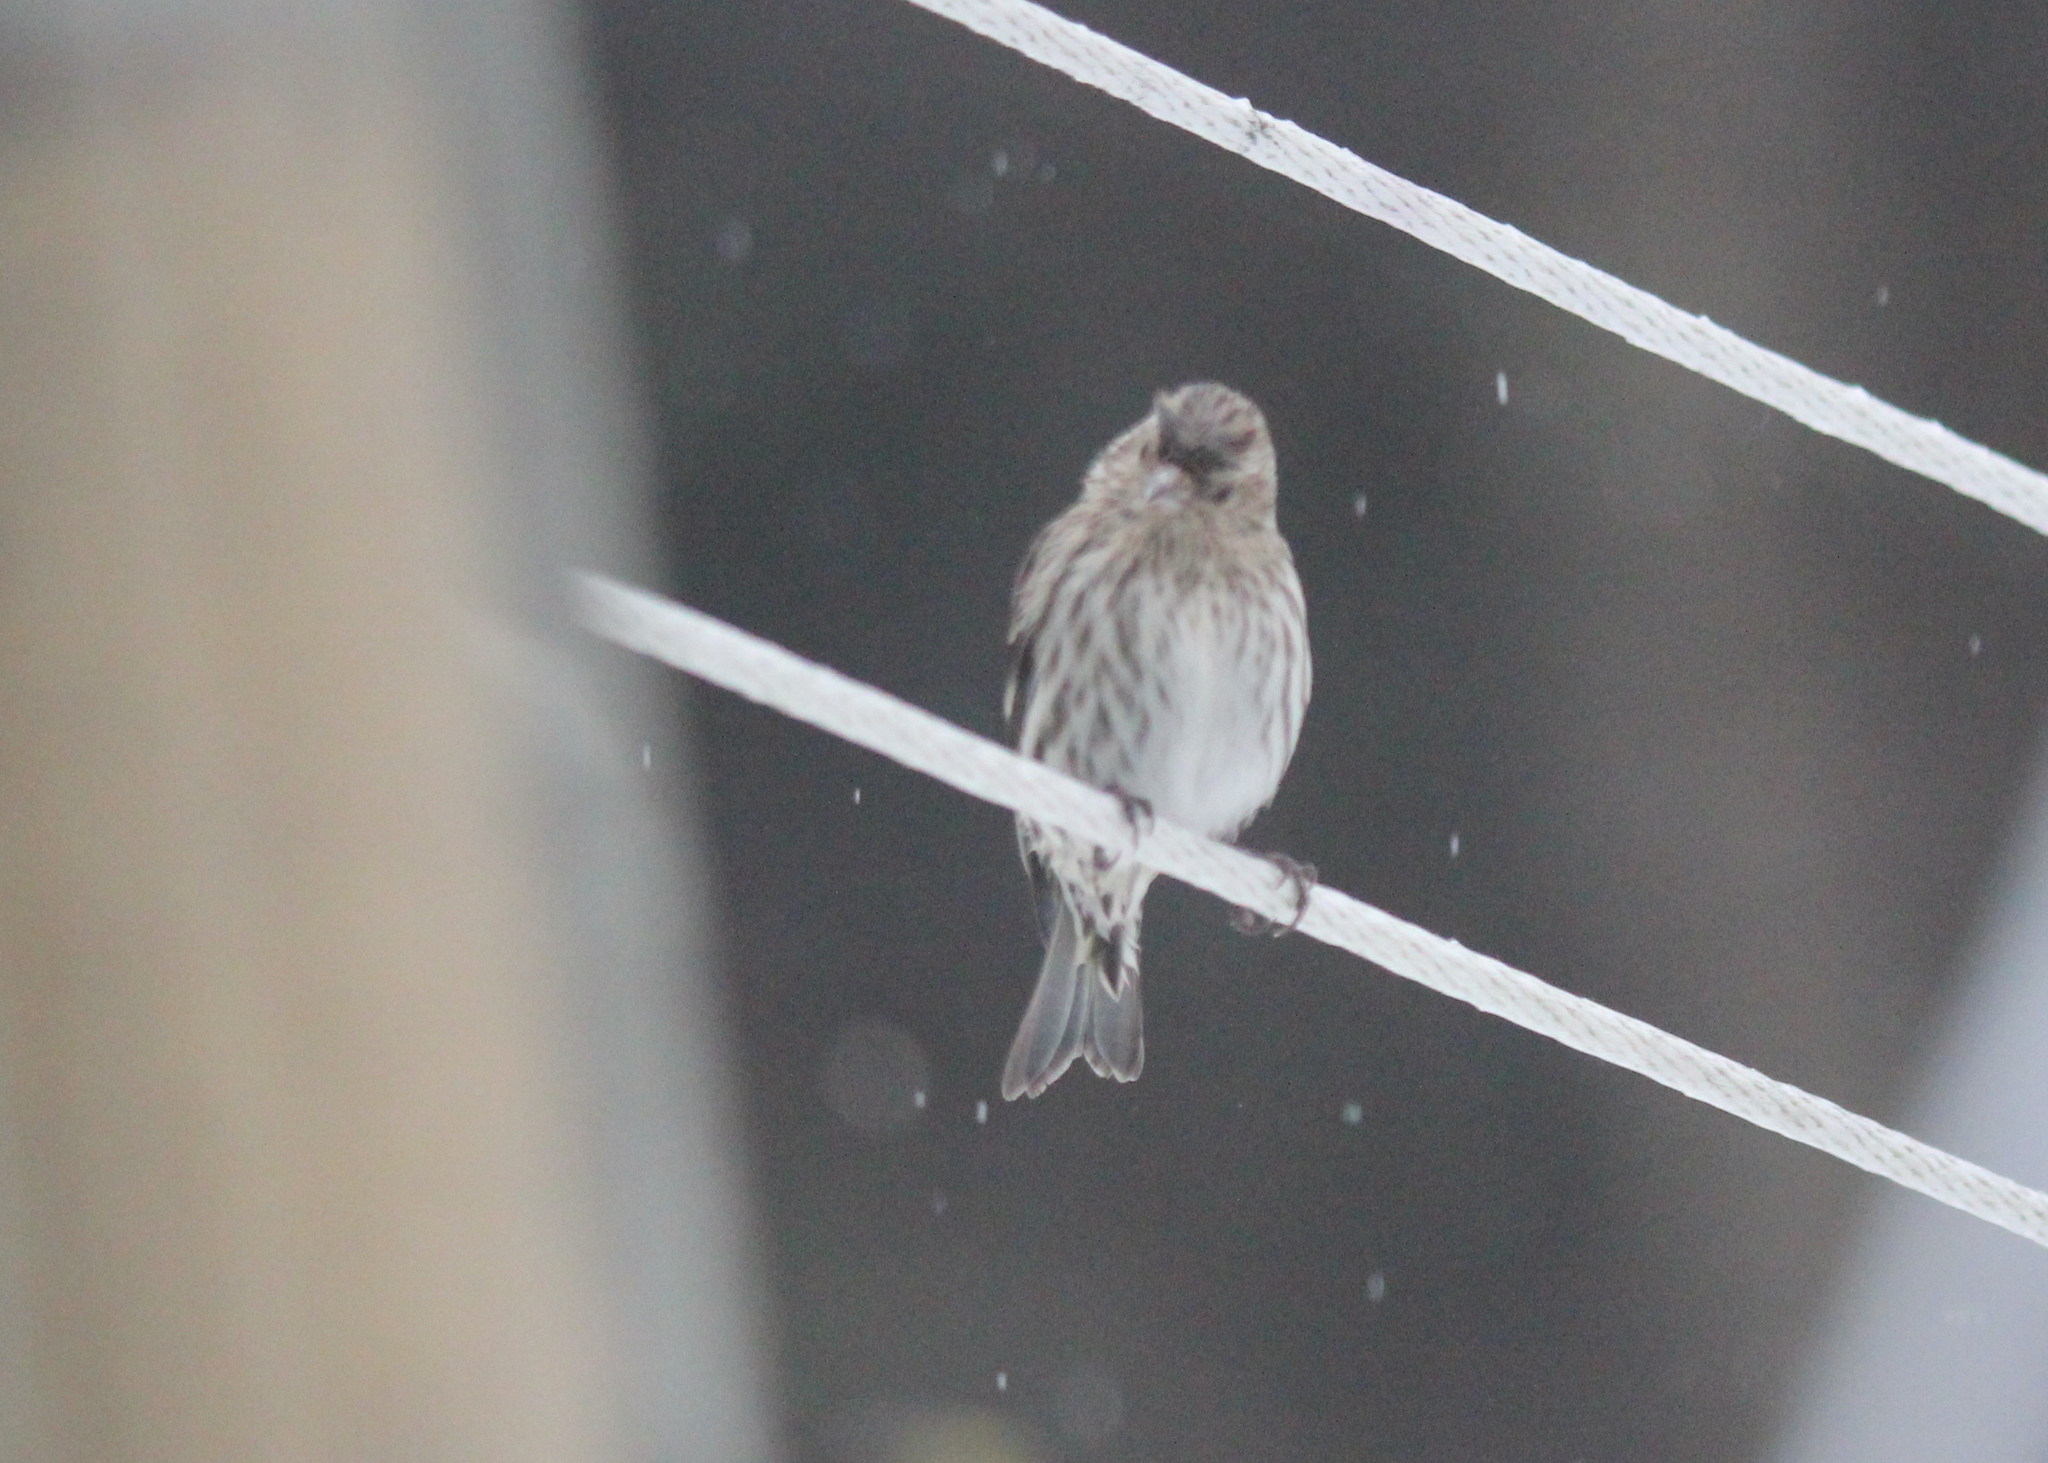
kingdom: Animalia
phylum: Chordata
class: Aves
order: Passeriformes
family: Fringillidae
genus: Spinus
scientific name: Spinus pinus
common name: Pine siskin
